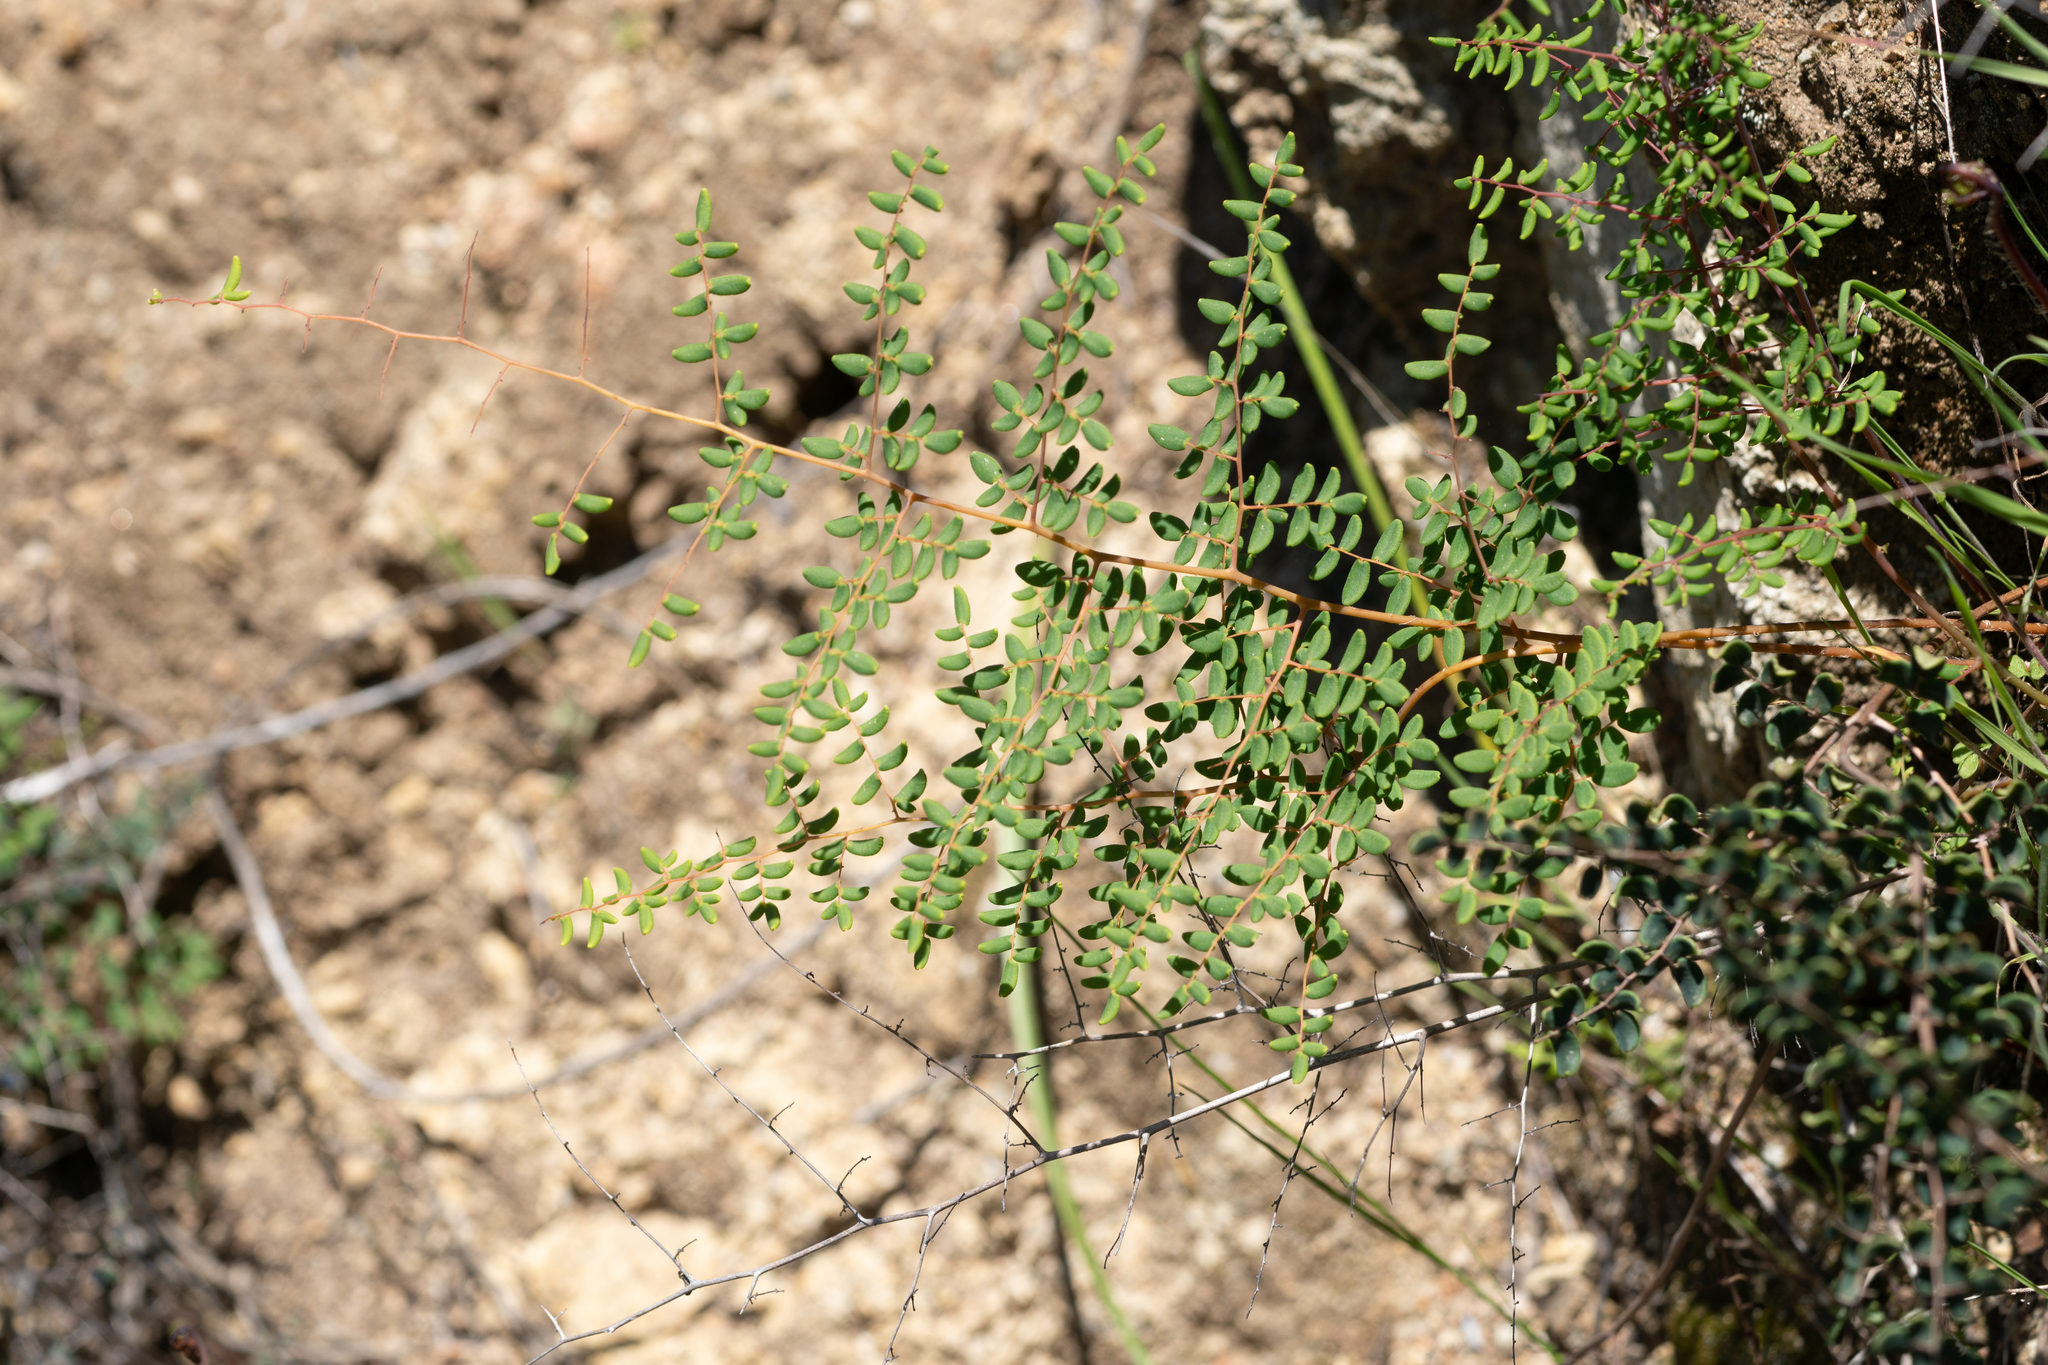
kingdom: Plantae
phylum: Tracheophyta
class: Polypodiopsida
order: Polypodiales
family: Pteridaceae
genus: Pellaea
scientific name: Pellaea andromedifolia
